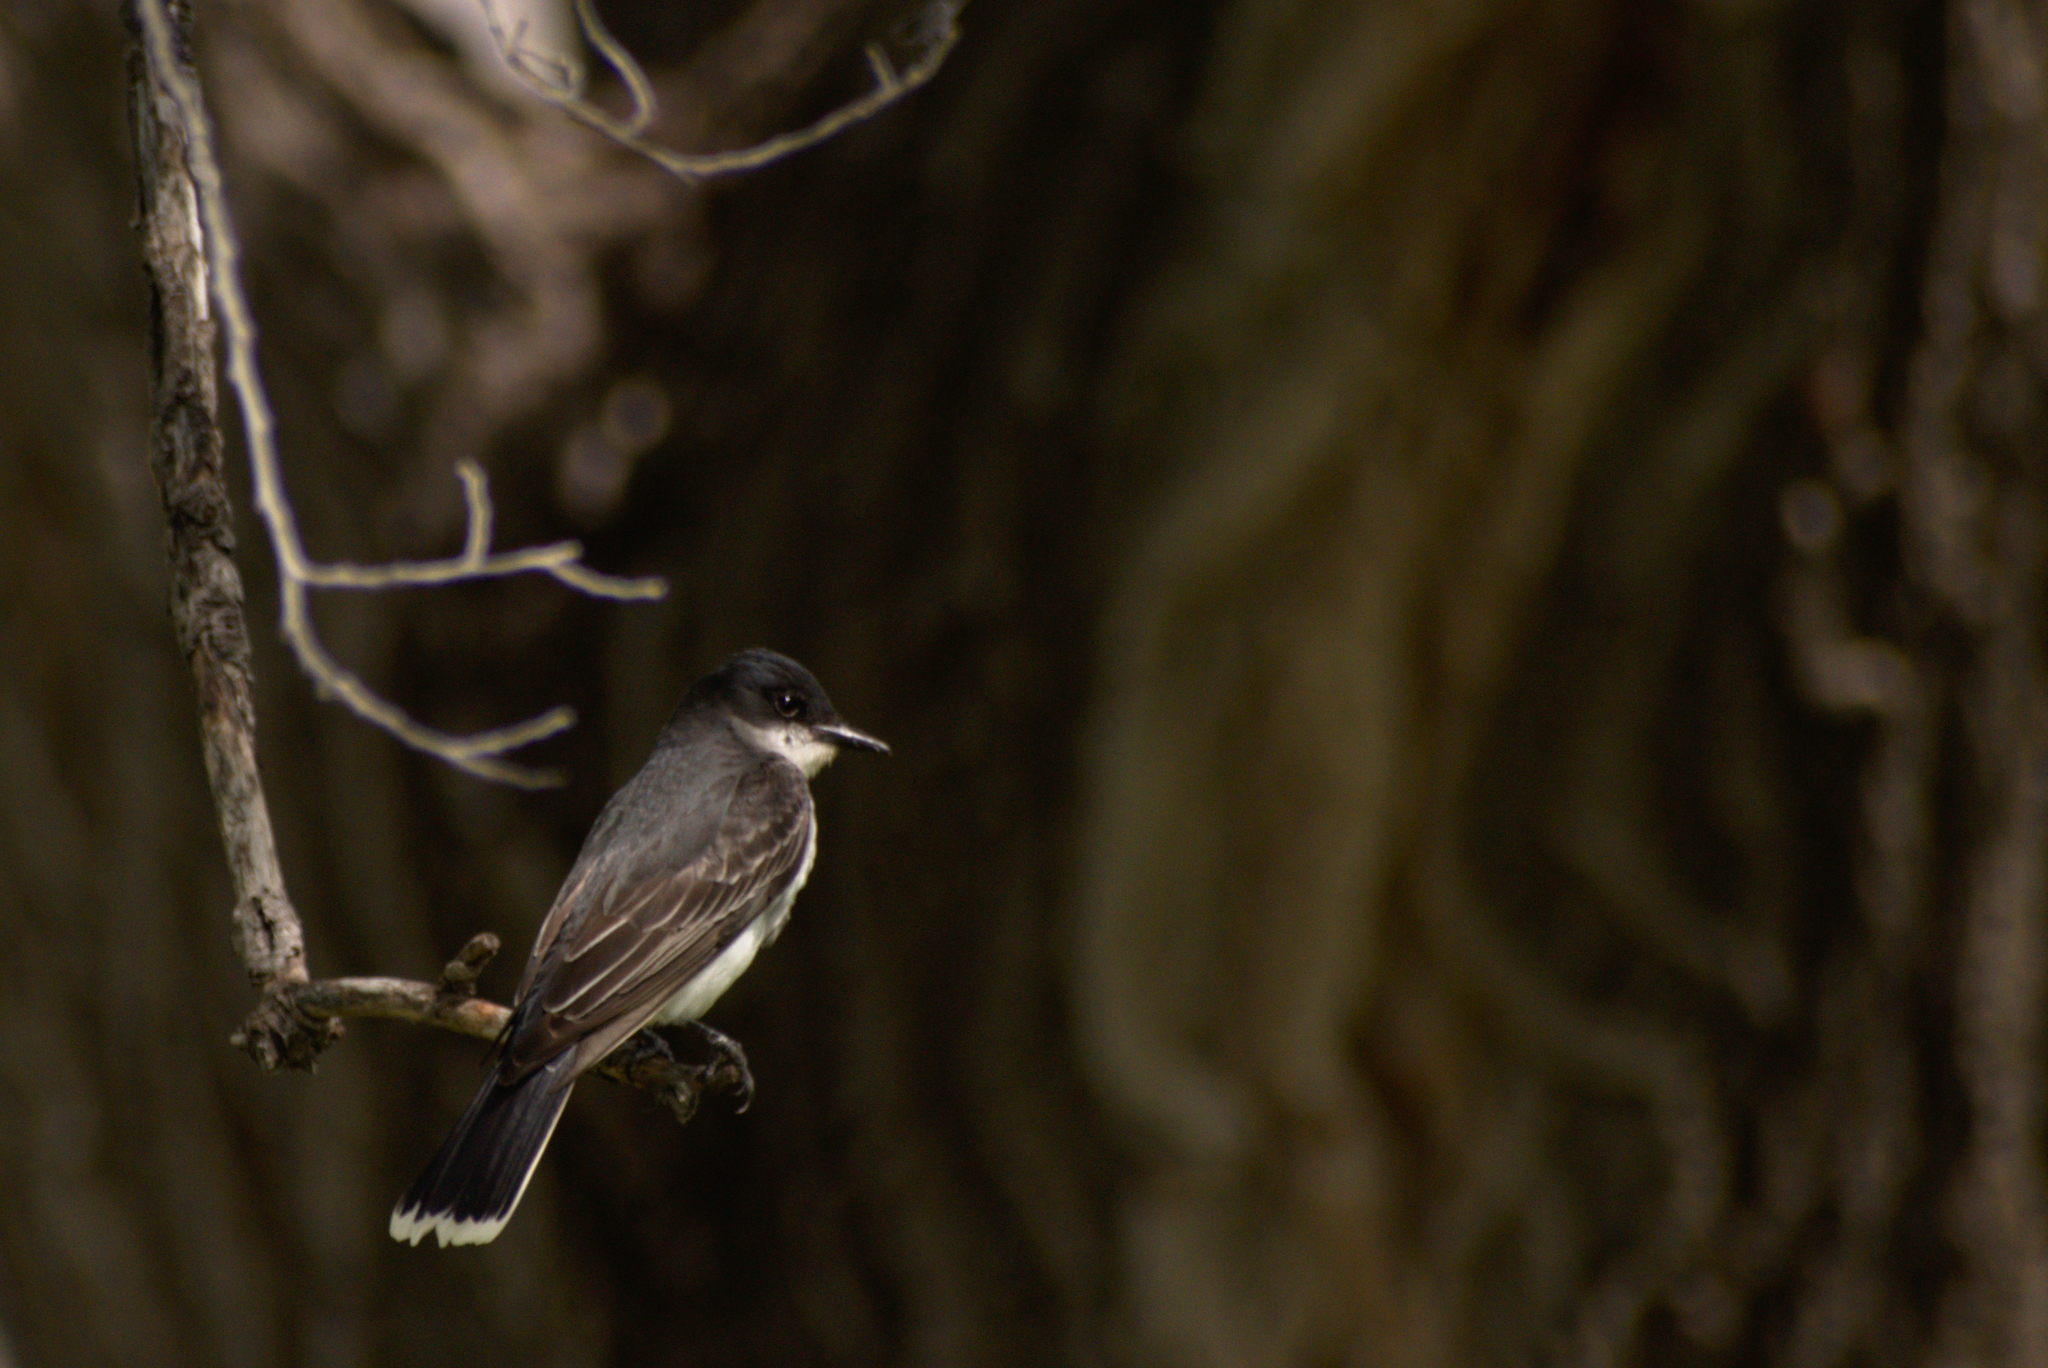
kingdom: Animalia
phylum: Chordata
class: Aves
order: Passeriformes
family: Tyrannidae
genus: Tyrannus
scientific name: Tyrannus tyrannus
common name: Eastern kingbird
